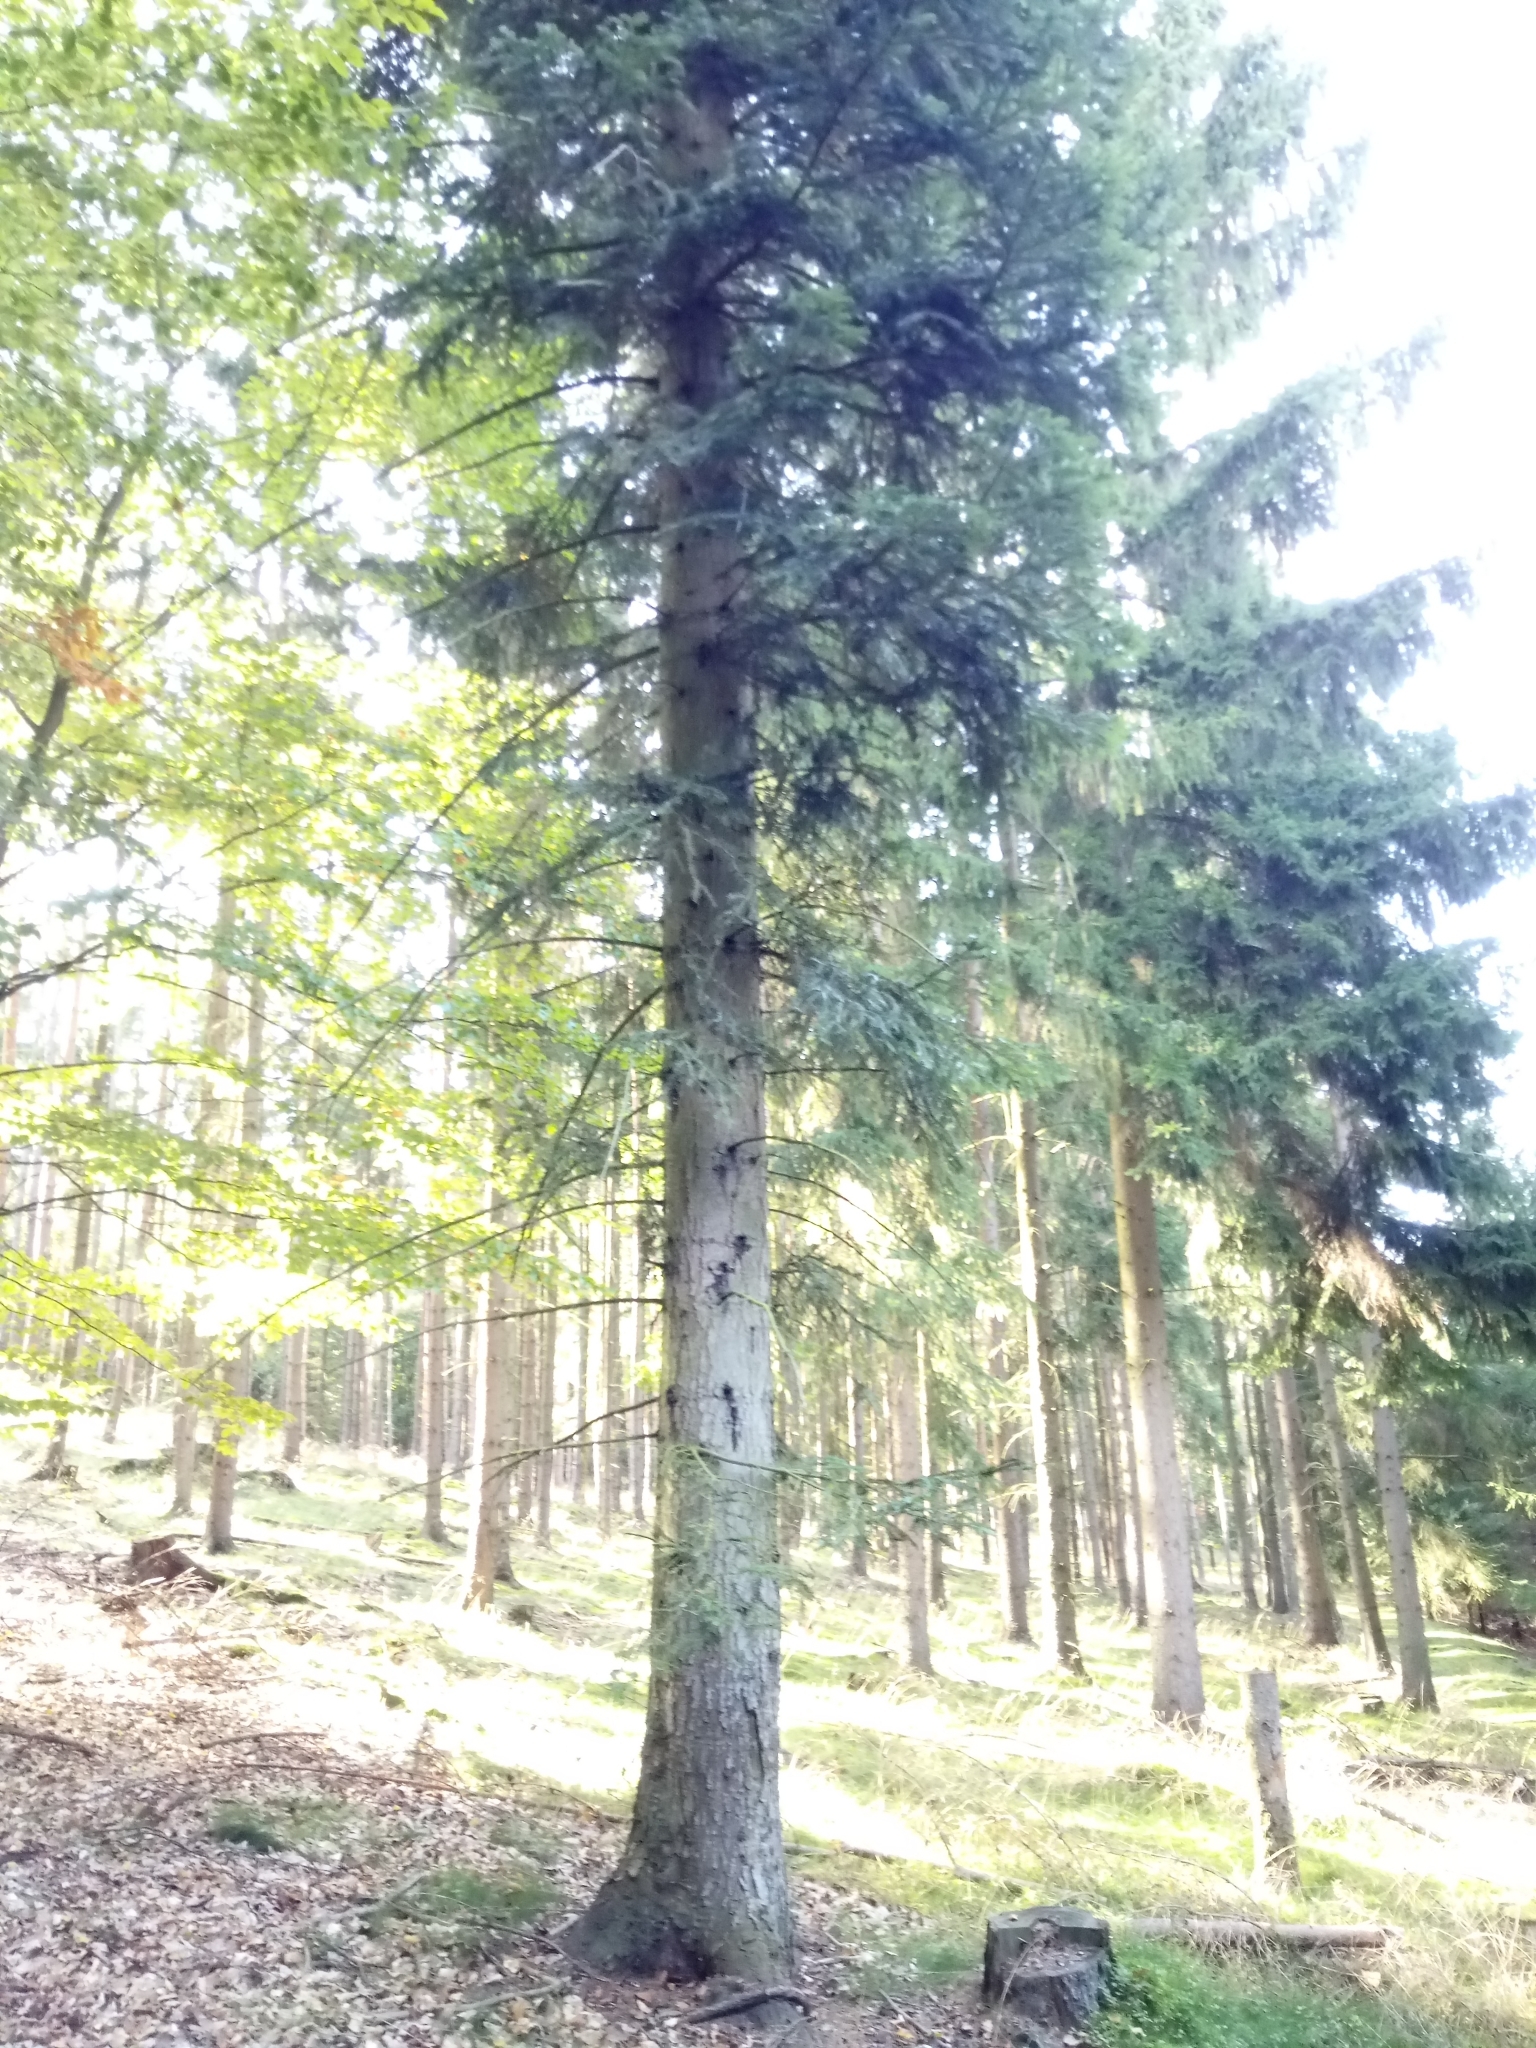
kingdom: Plantae
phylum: Tracheophyta
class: Pinopsida
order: Pinales
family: Pinaceae
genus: Abies
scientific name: Abies alba
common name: Silver fir
